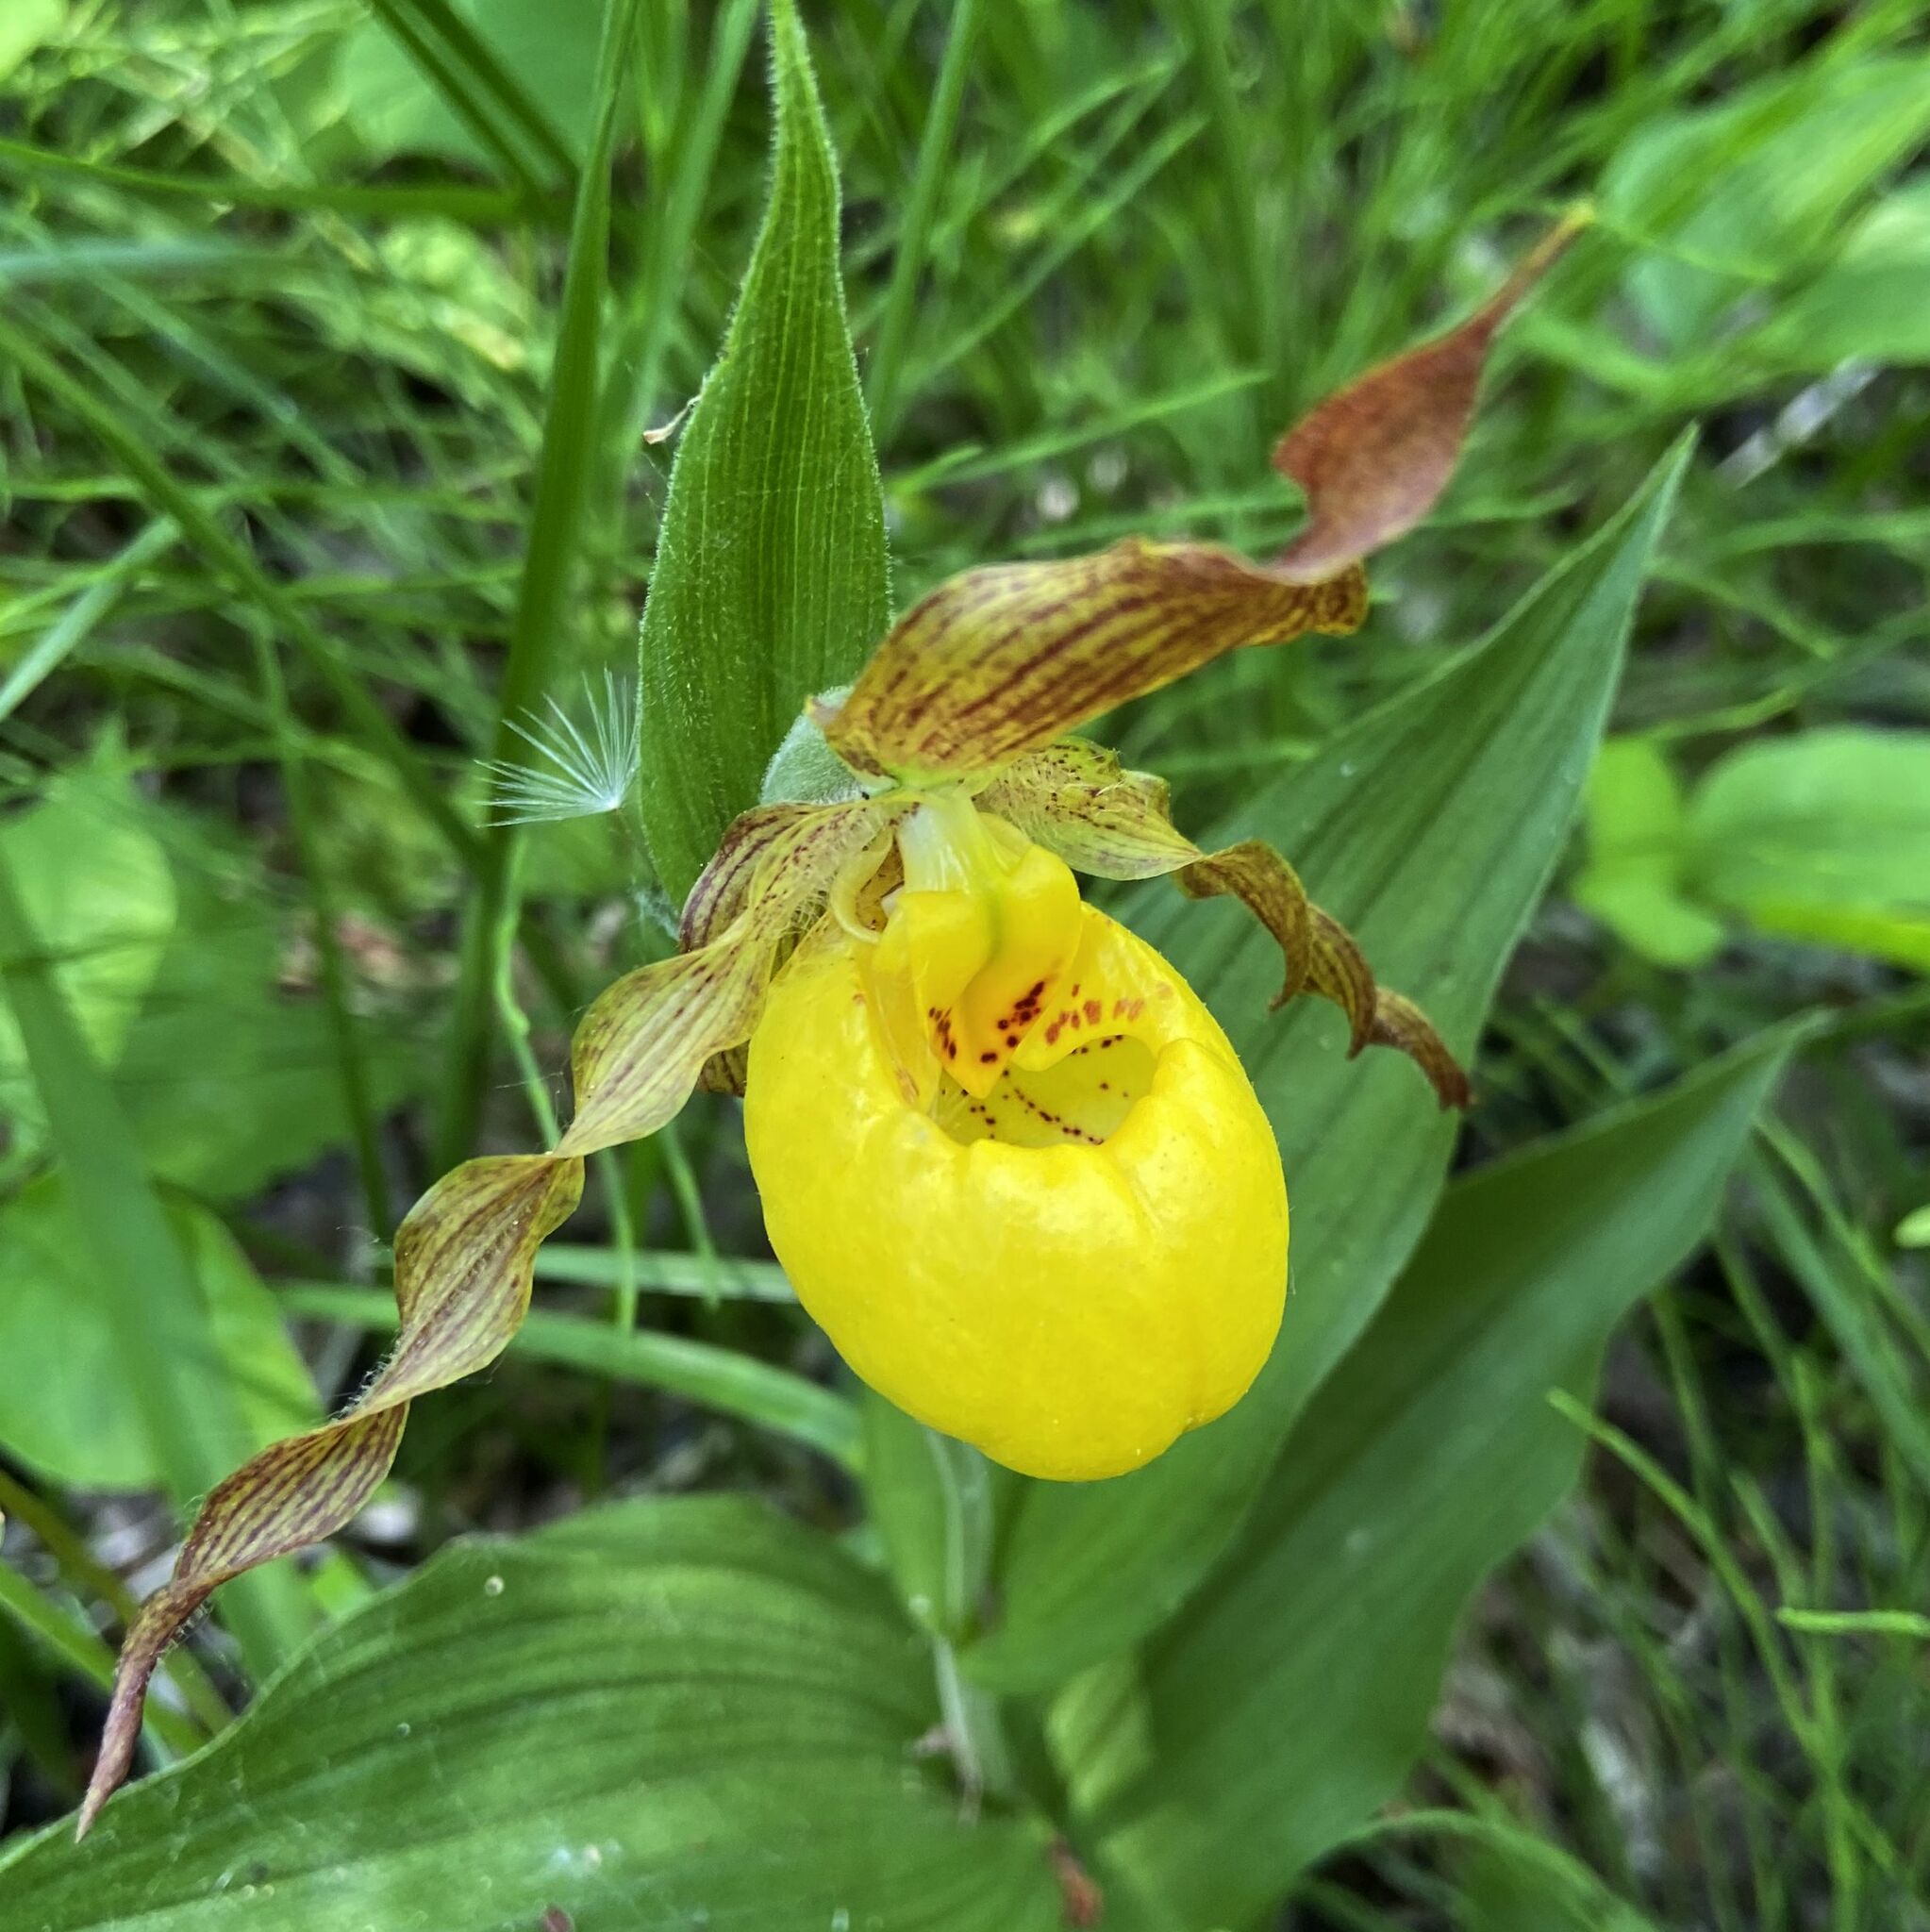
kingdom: Plantae
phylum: Tracheophyta
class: Liliopsida
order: Asparagales
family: Orchidaceae
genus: Cypripedium
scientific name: Cypripedium parviflorum
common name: American yellow lady's-slipper
